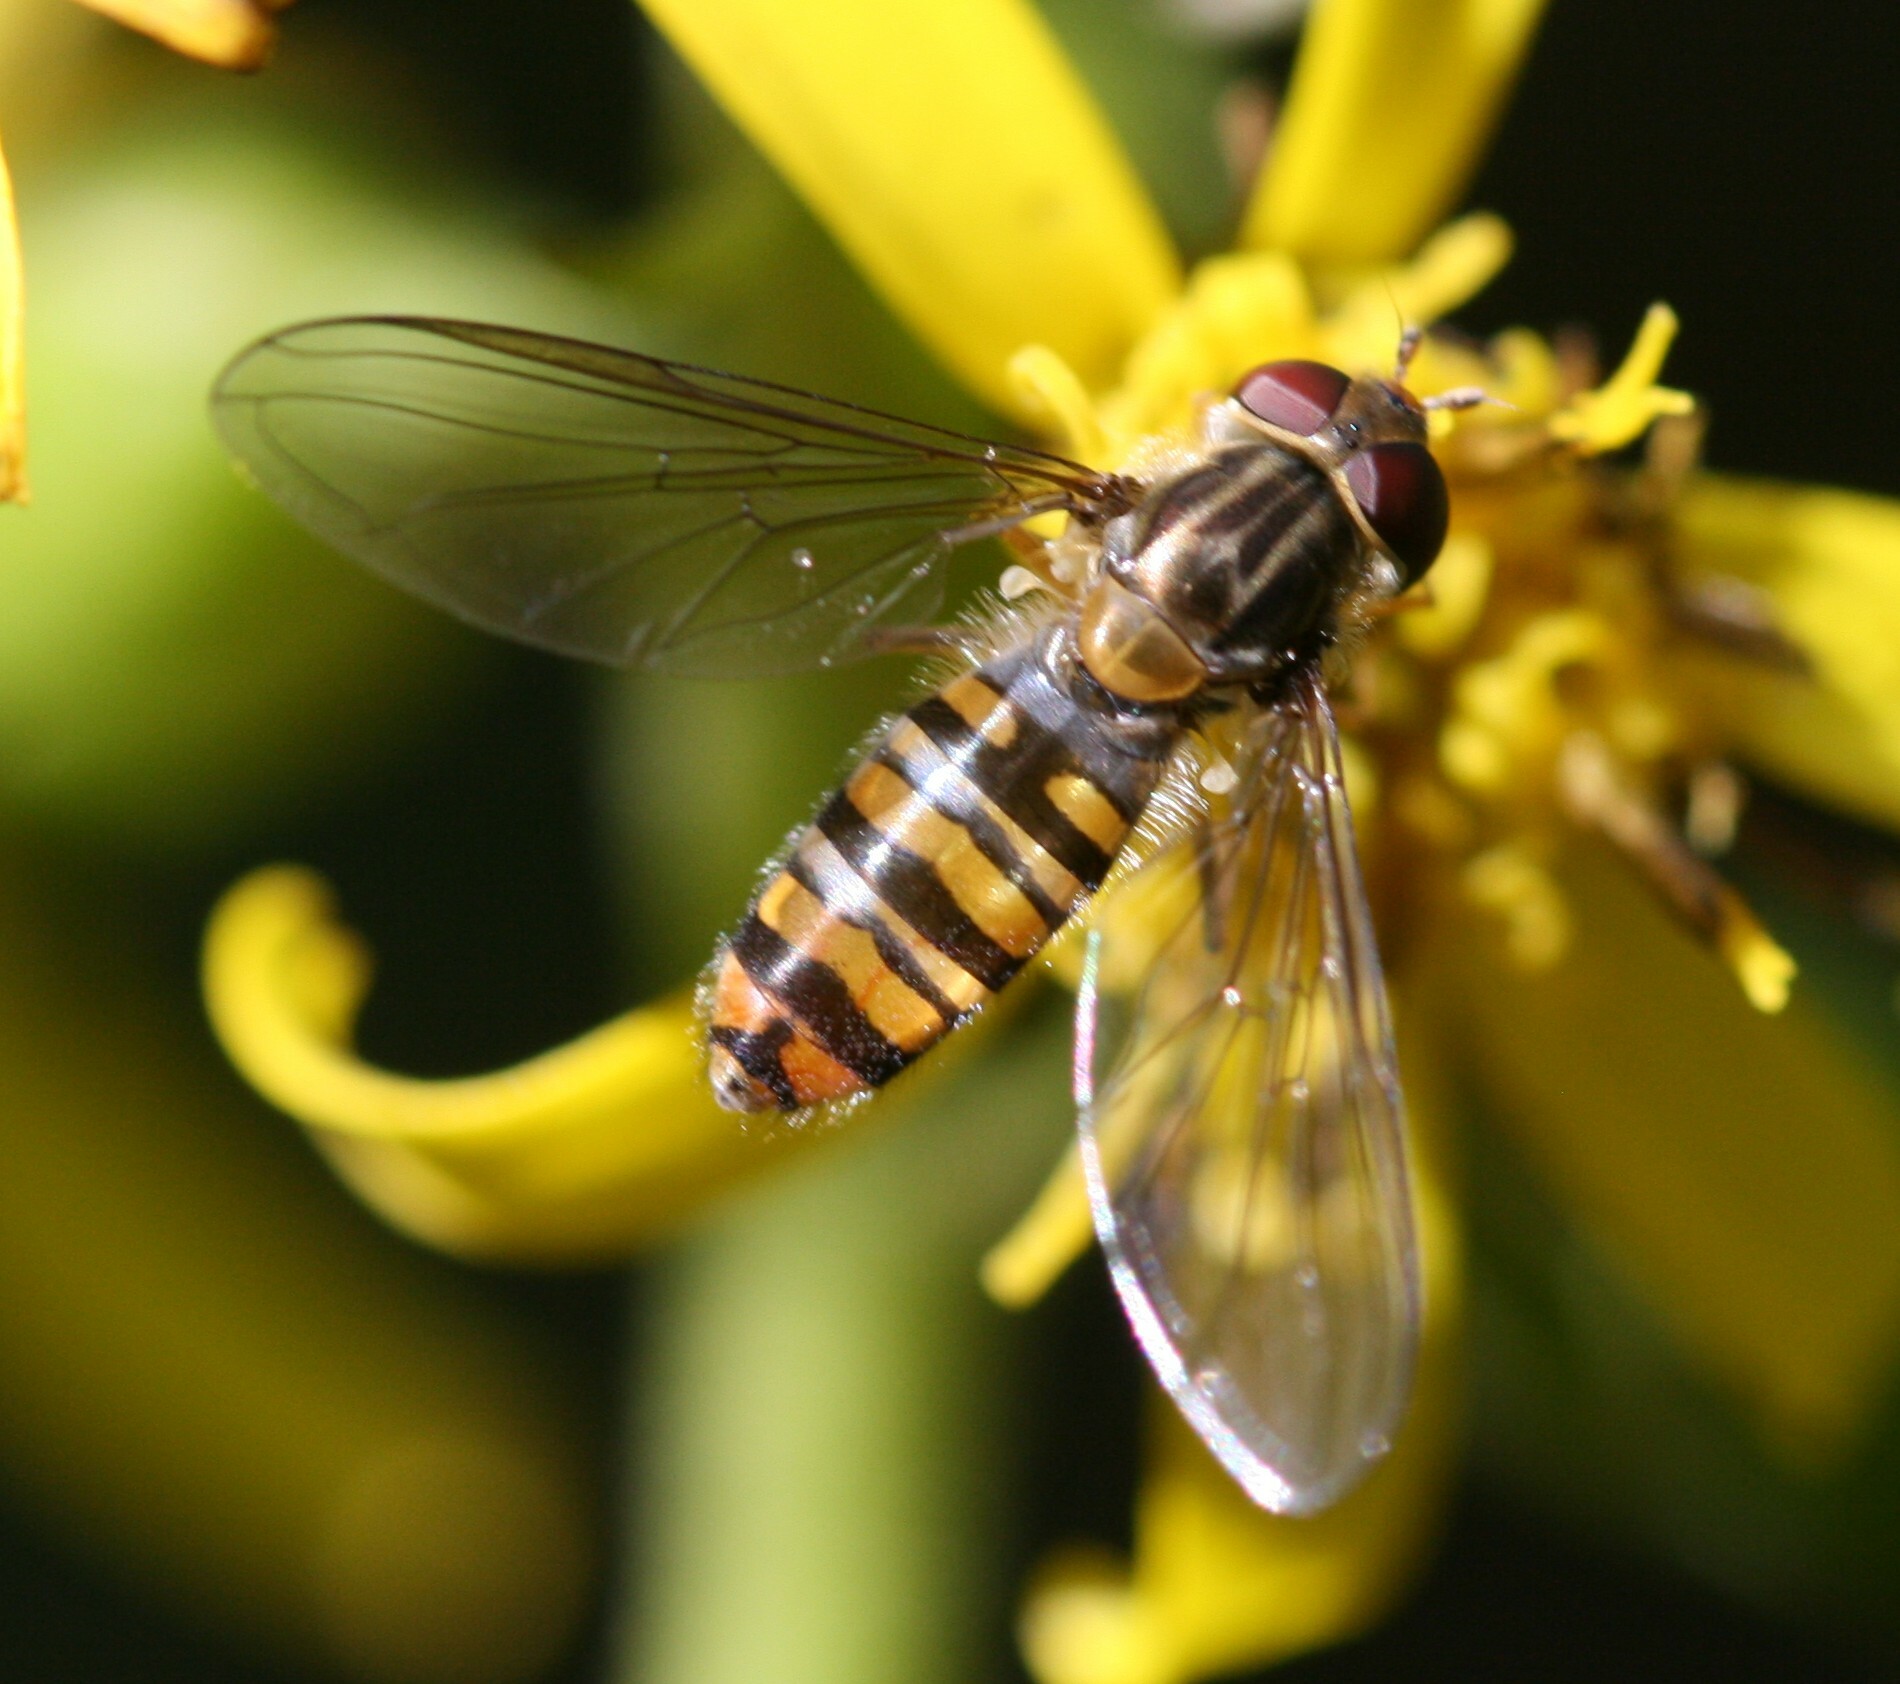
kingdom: Animalia
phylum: Arthropoda
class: Insecta
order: Diptera
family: Syrphidae
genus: Episyrphus
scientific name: Episyrphus balteatus
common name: Marmalade hoverfly
